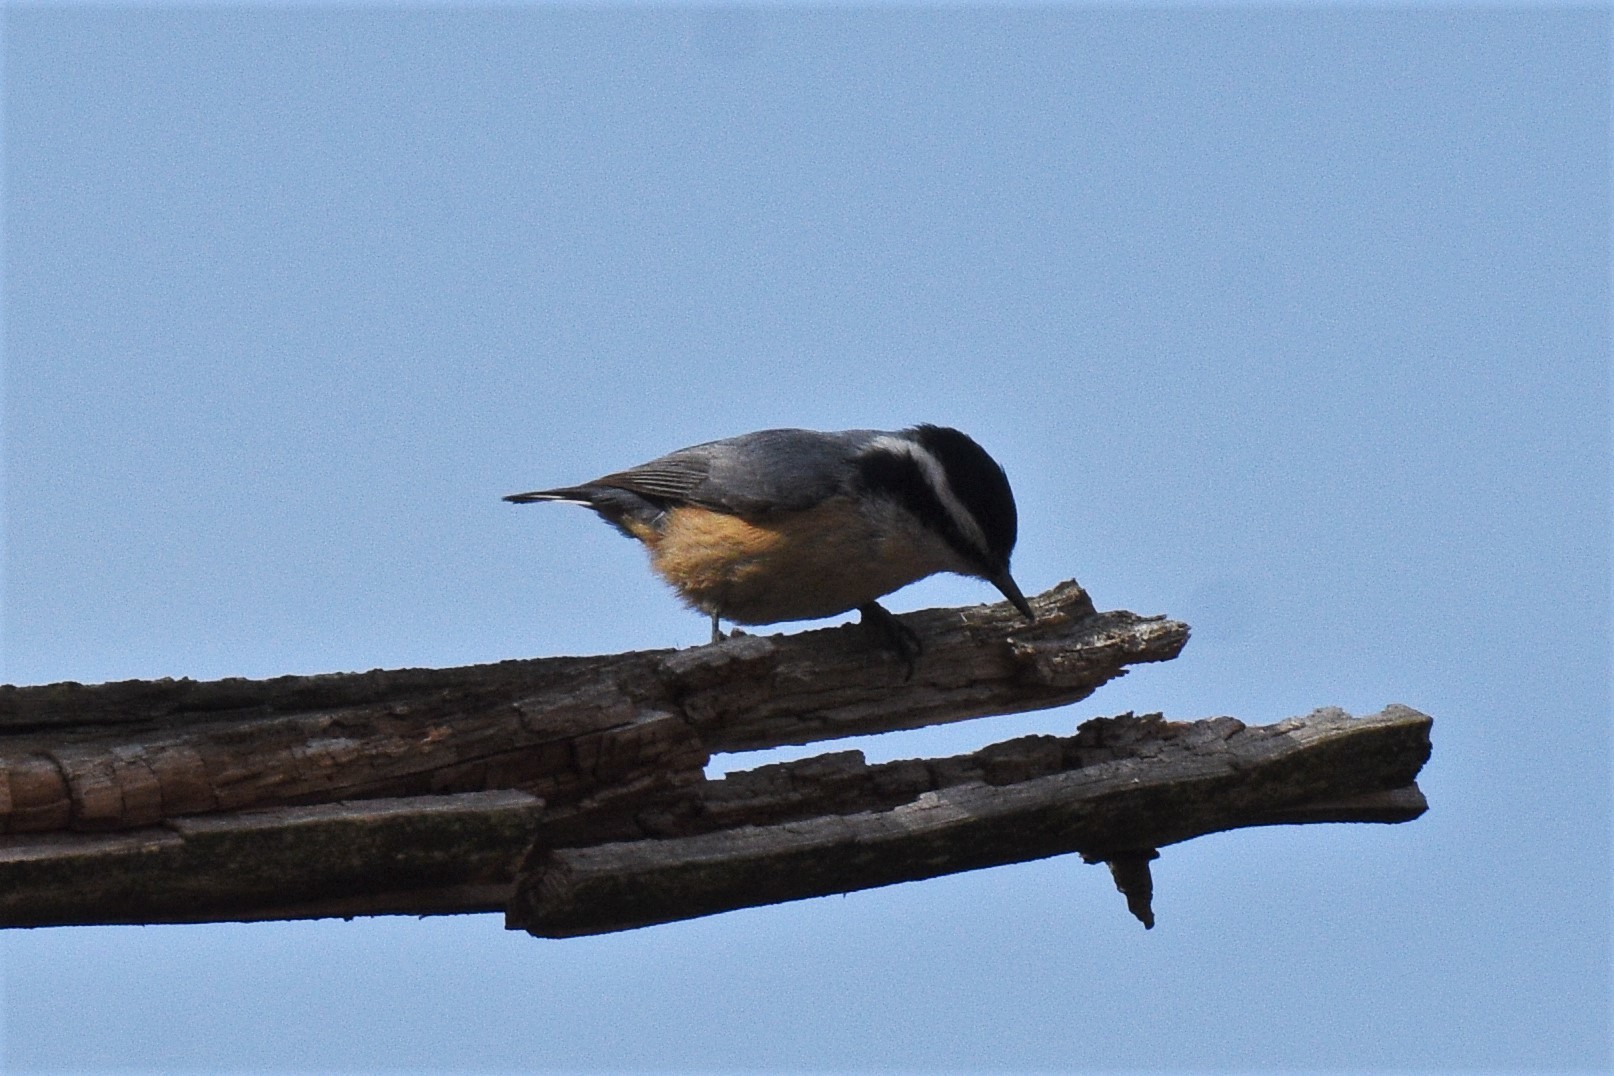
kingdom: Animalia
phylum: Chordata
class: Aves
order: Passeriformes
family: Sittidae
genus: Sitta
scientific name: Sitta canadensis
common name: Red-breasted nuthatch
